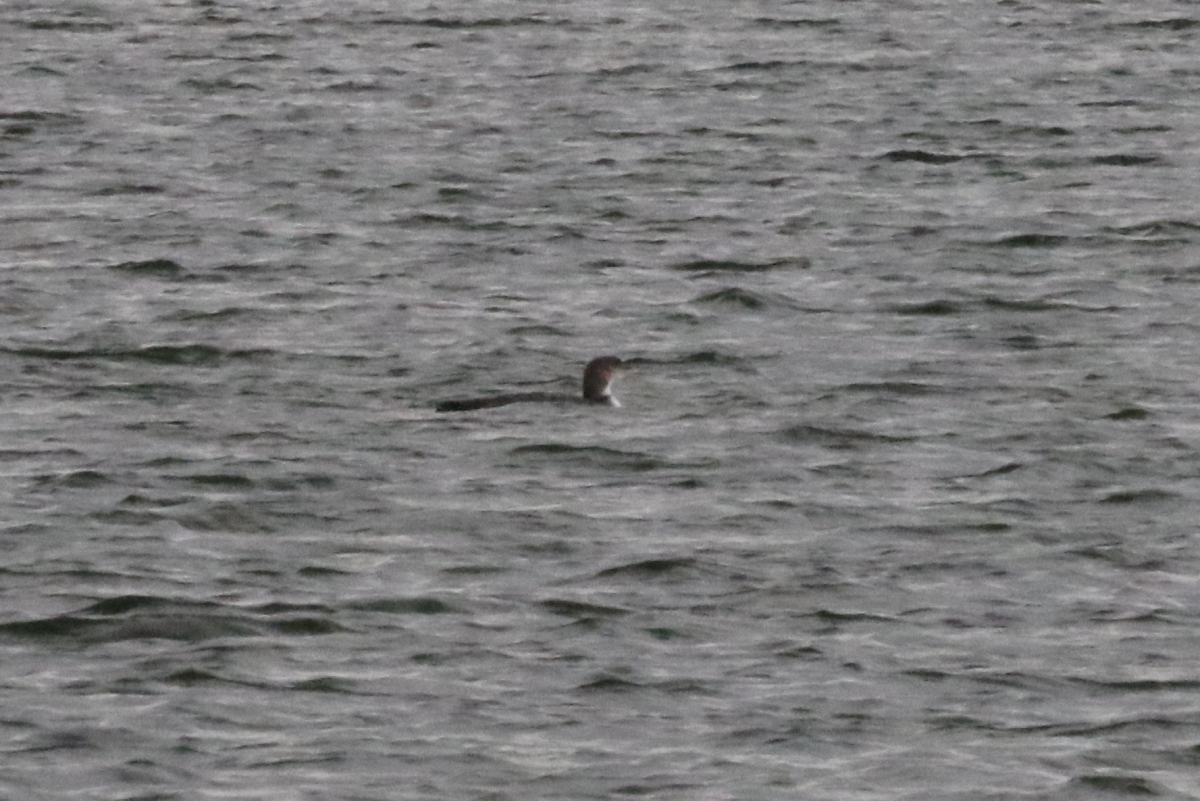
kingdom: Animalia
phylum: Chordata
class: Aves
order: Gaviiformes
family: Gaviidae
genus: Gavia
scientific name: Gavia immer
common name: Common loon
